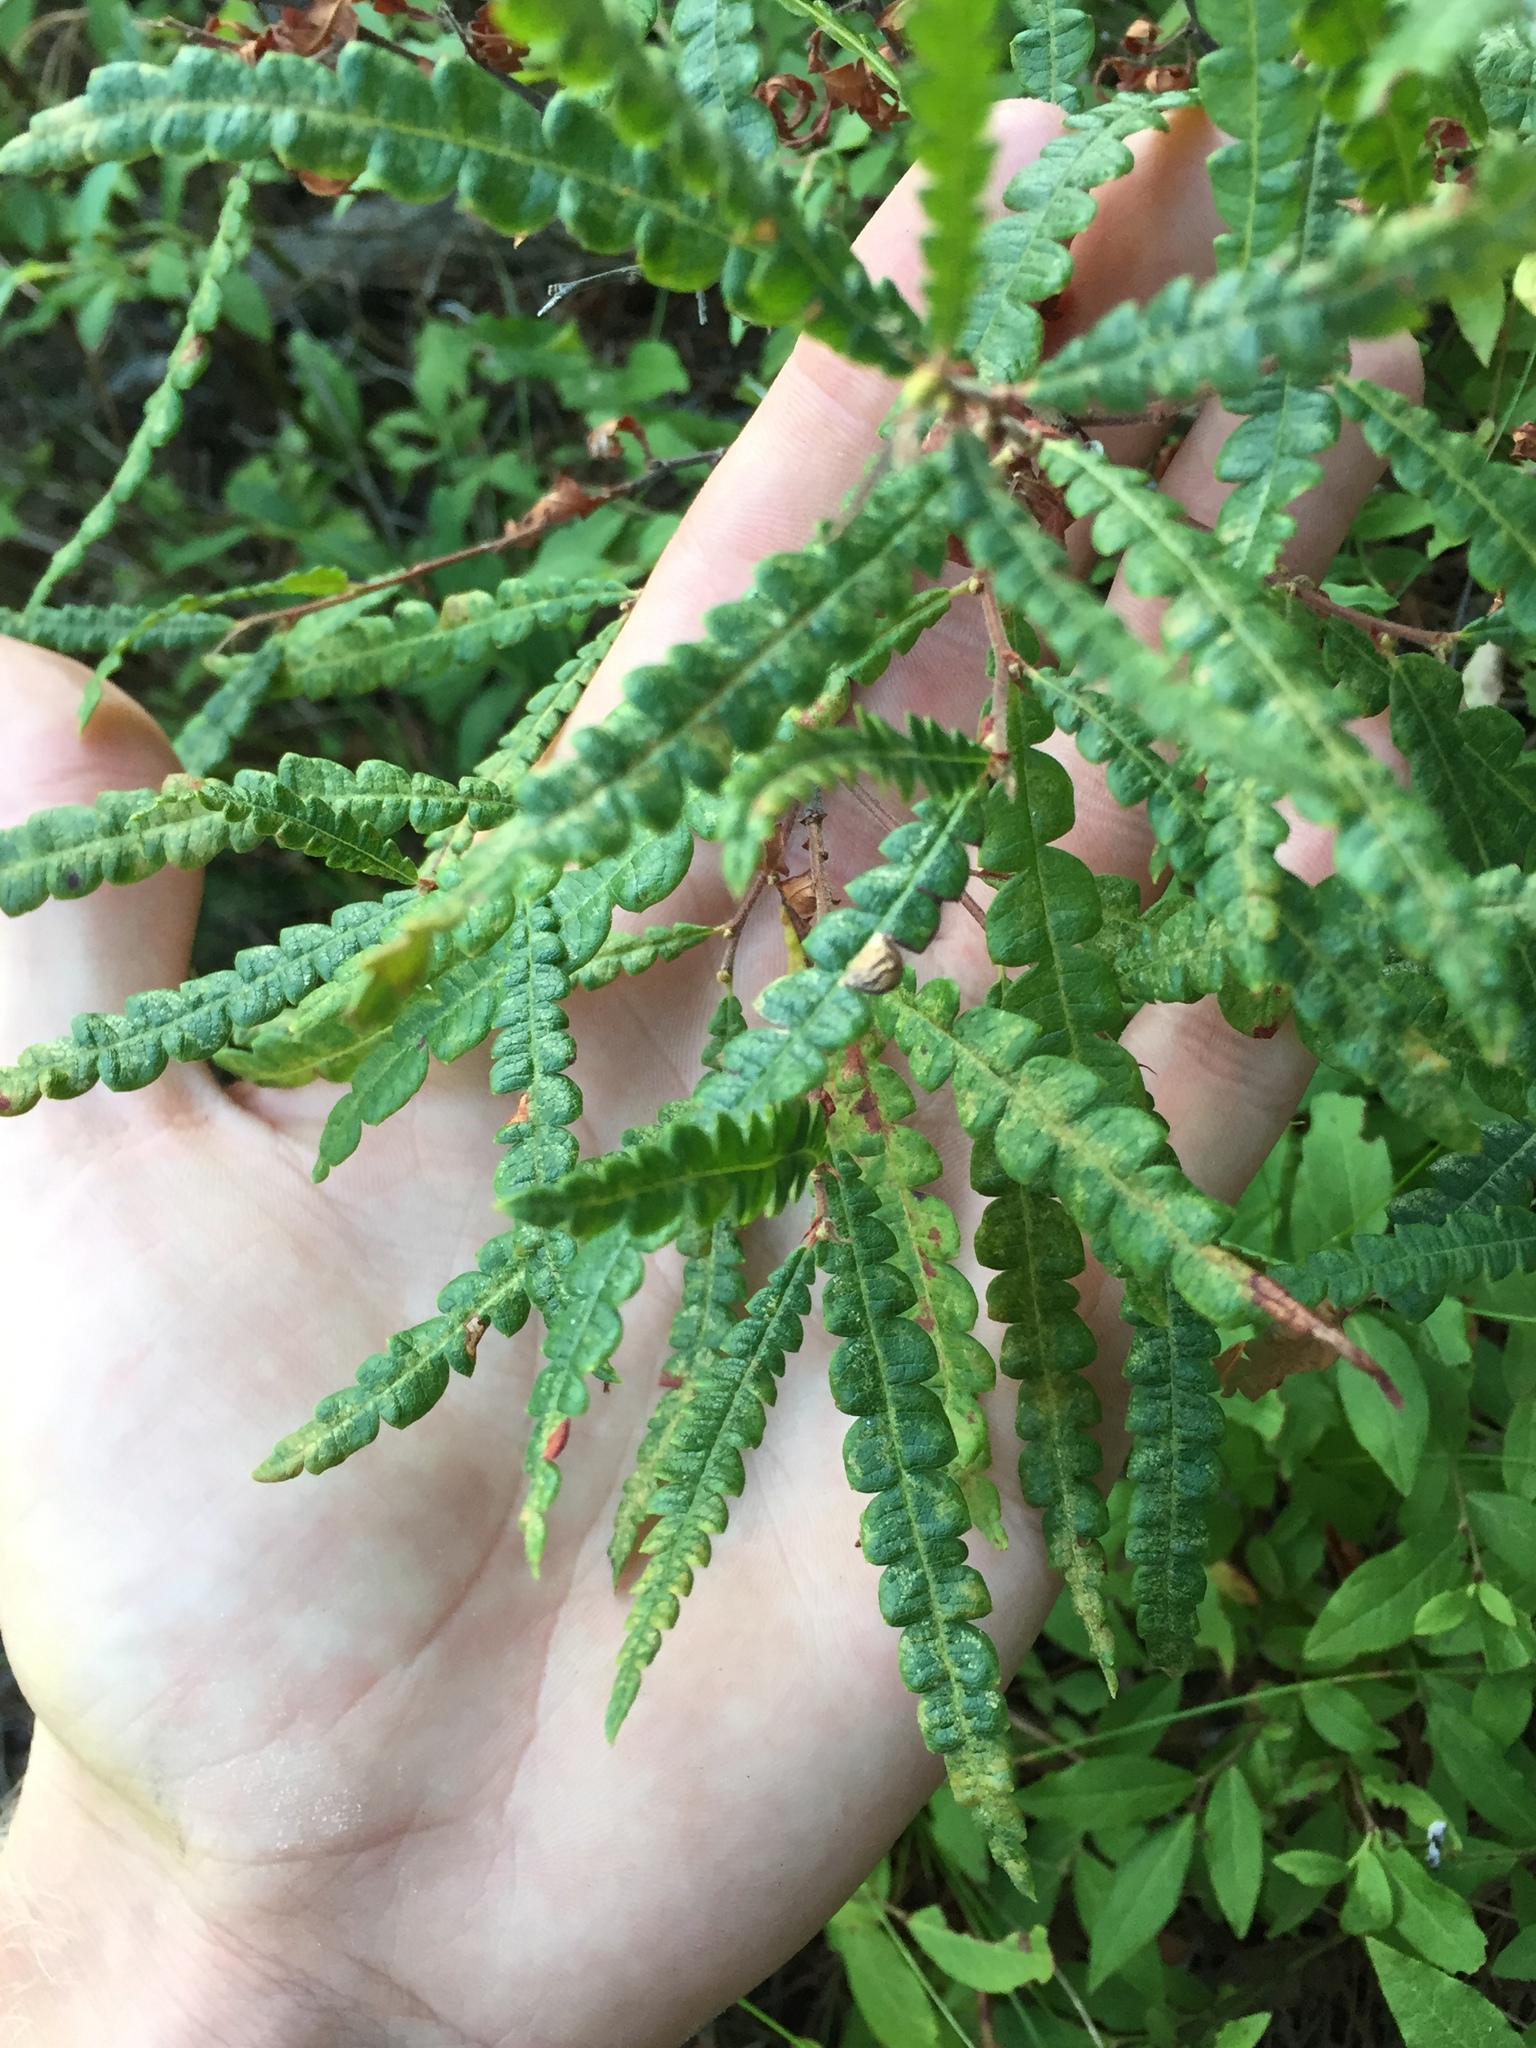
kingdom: Plantae
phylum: Tracheophyta
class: Magnoliopsida
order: Fagales
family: Myricaceae
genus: Comptonia
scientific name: Comptonia peregrina
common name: Sweet-fern
